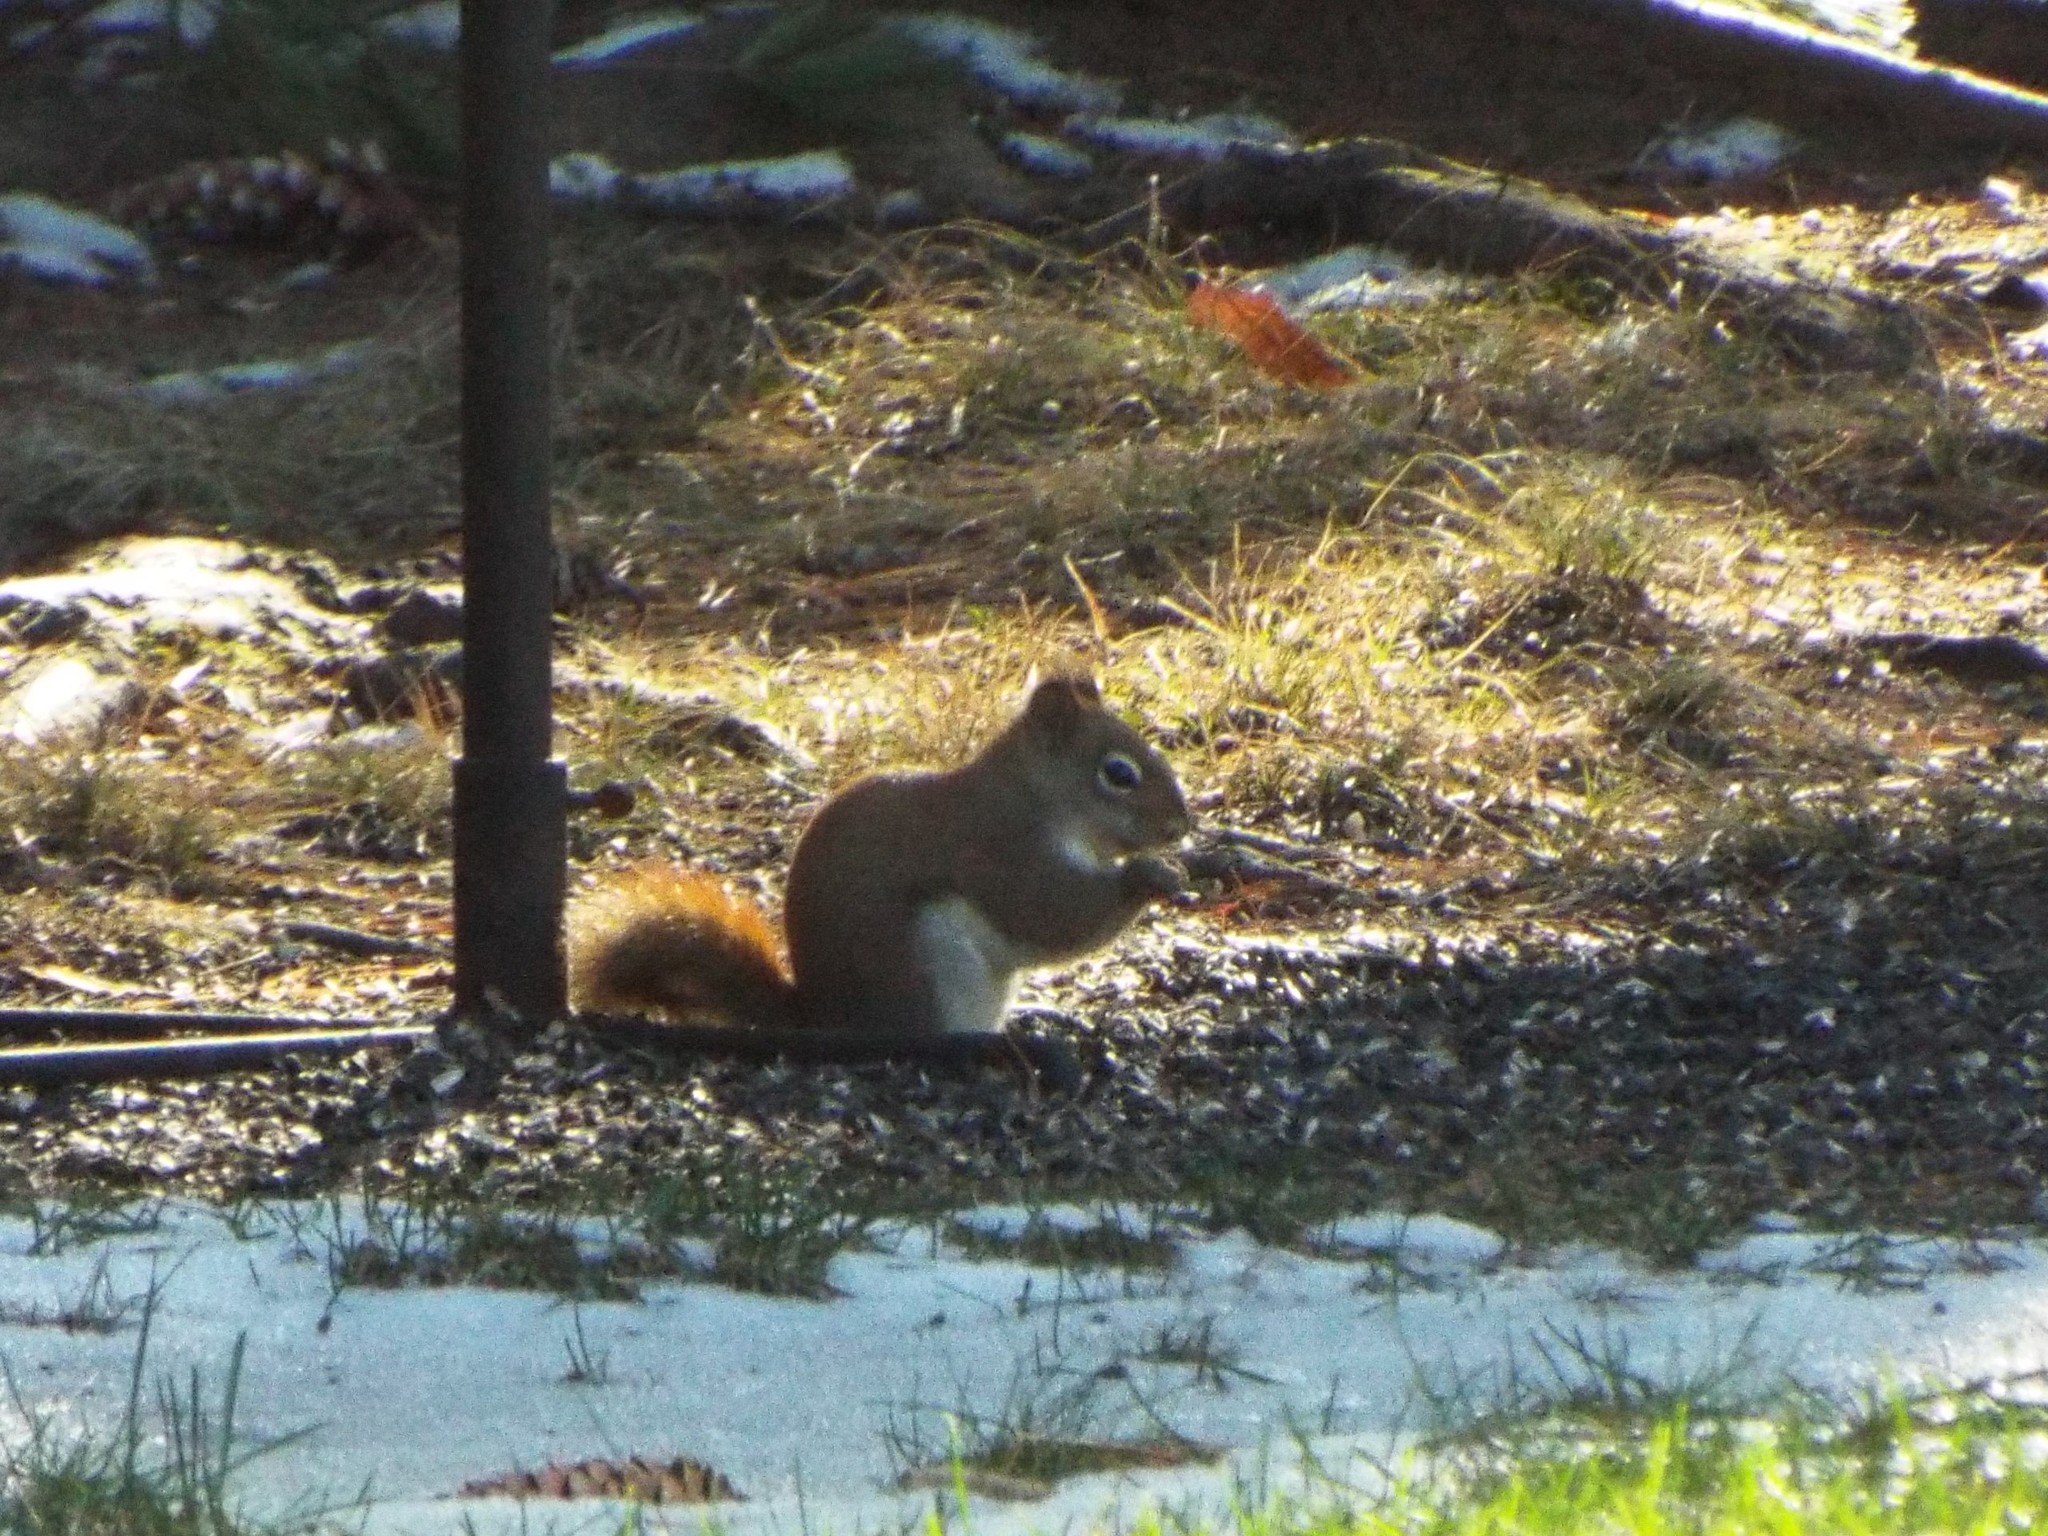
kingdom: Animalia
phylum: Chordata
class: Mammalia
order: Rodentia
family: Sciuridae
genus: Tamiasciurus
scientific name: Tamiasciurus hudsonicus
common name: Red squirrel
